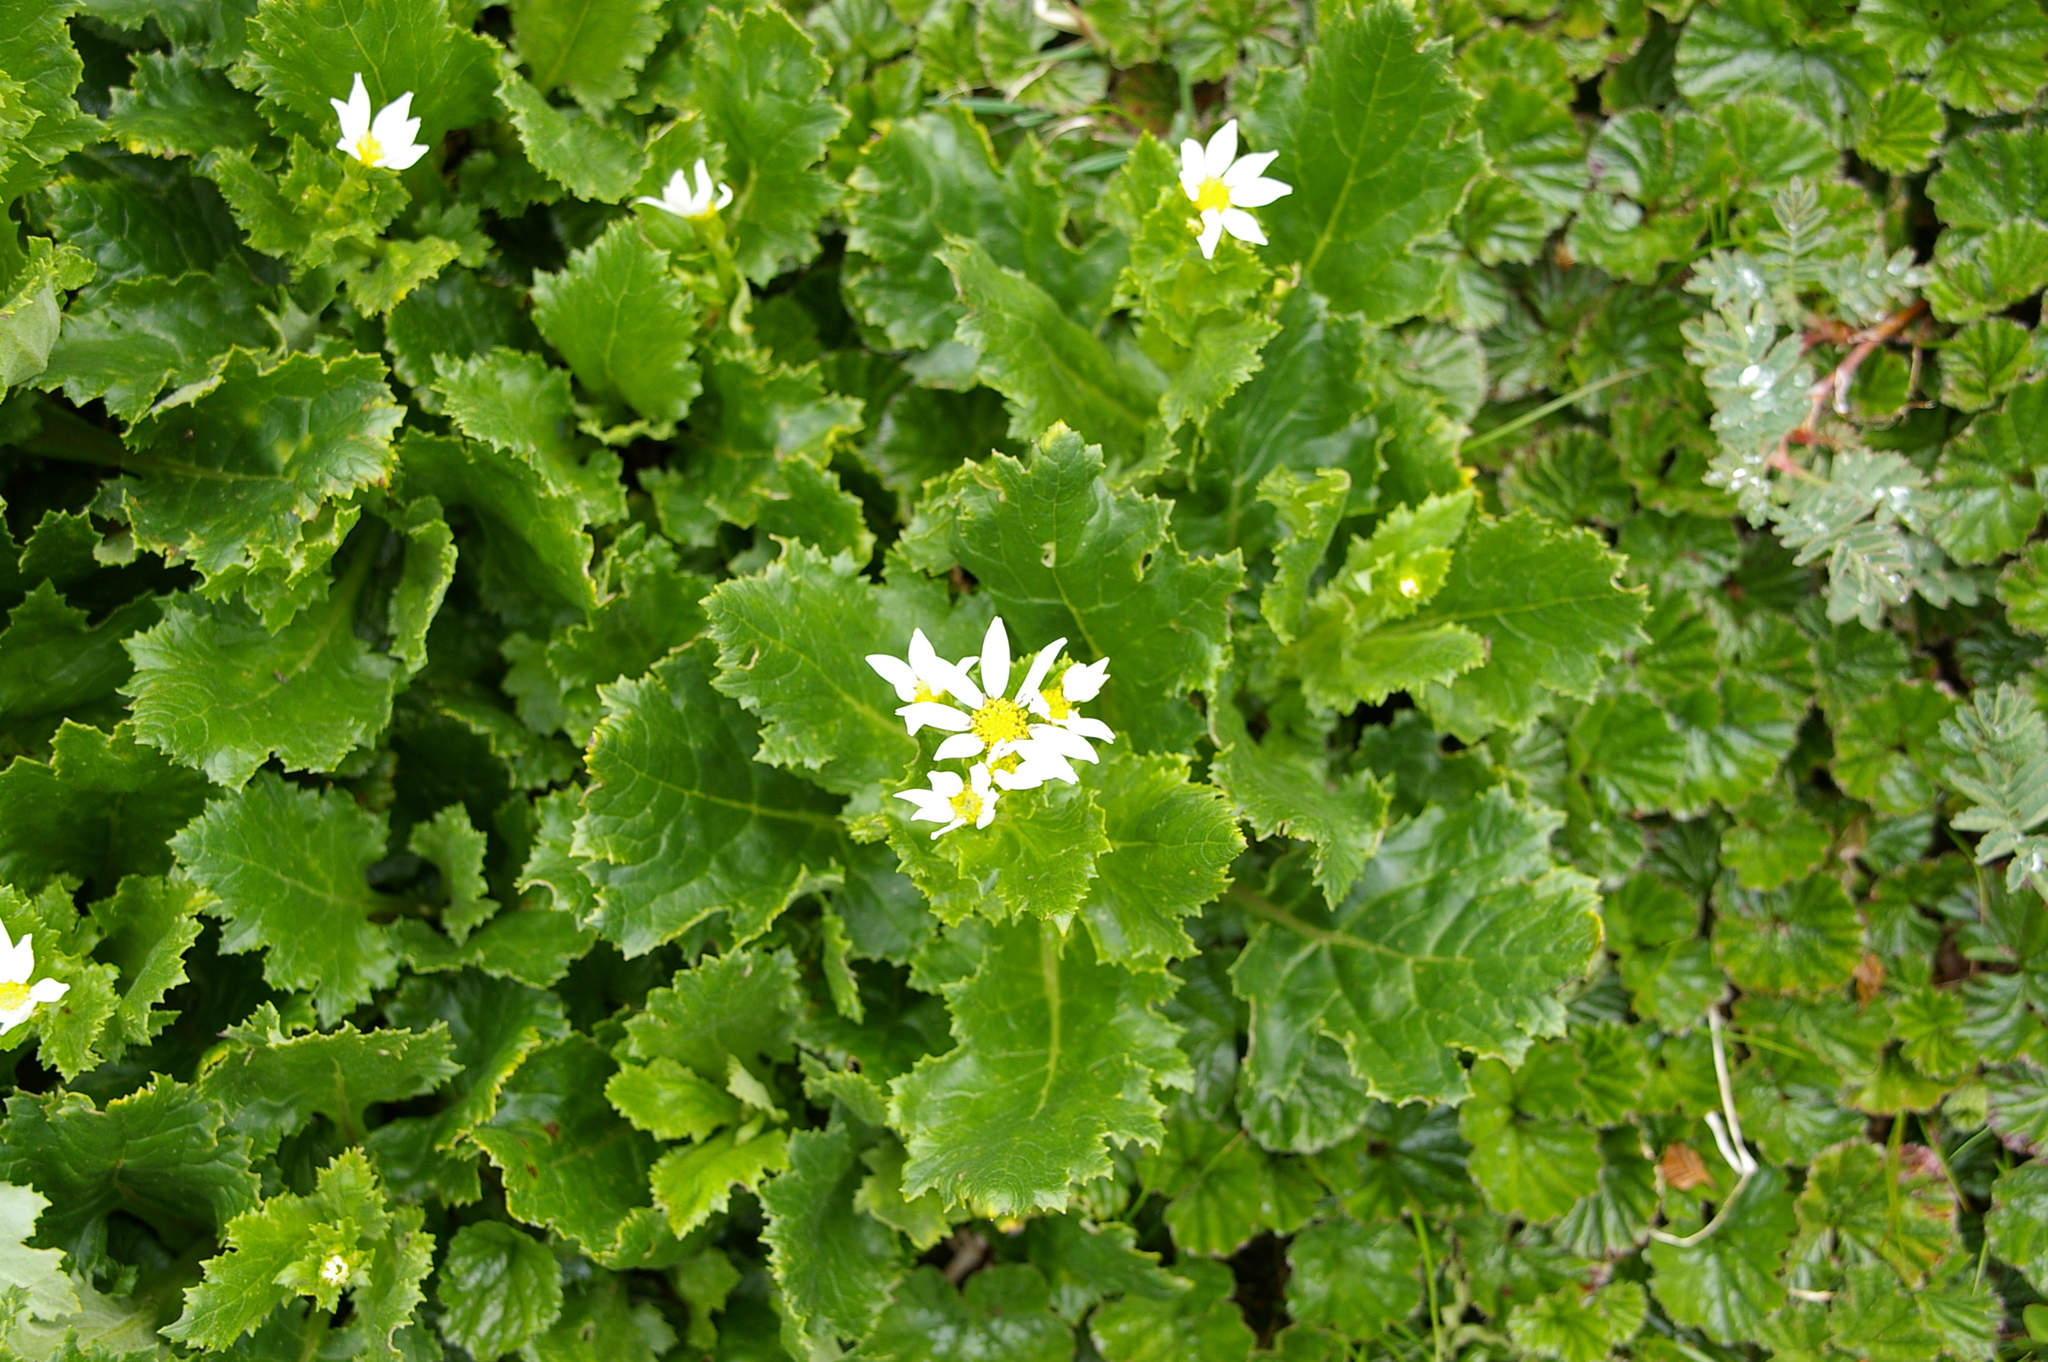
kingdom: Plantae
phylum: Tracheophyta
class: Magnoliopsida
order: Asterales
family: Asteraceae
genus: Iocenes
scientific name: Iocenes virens
